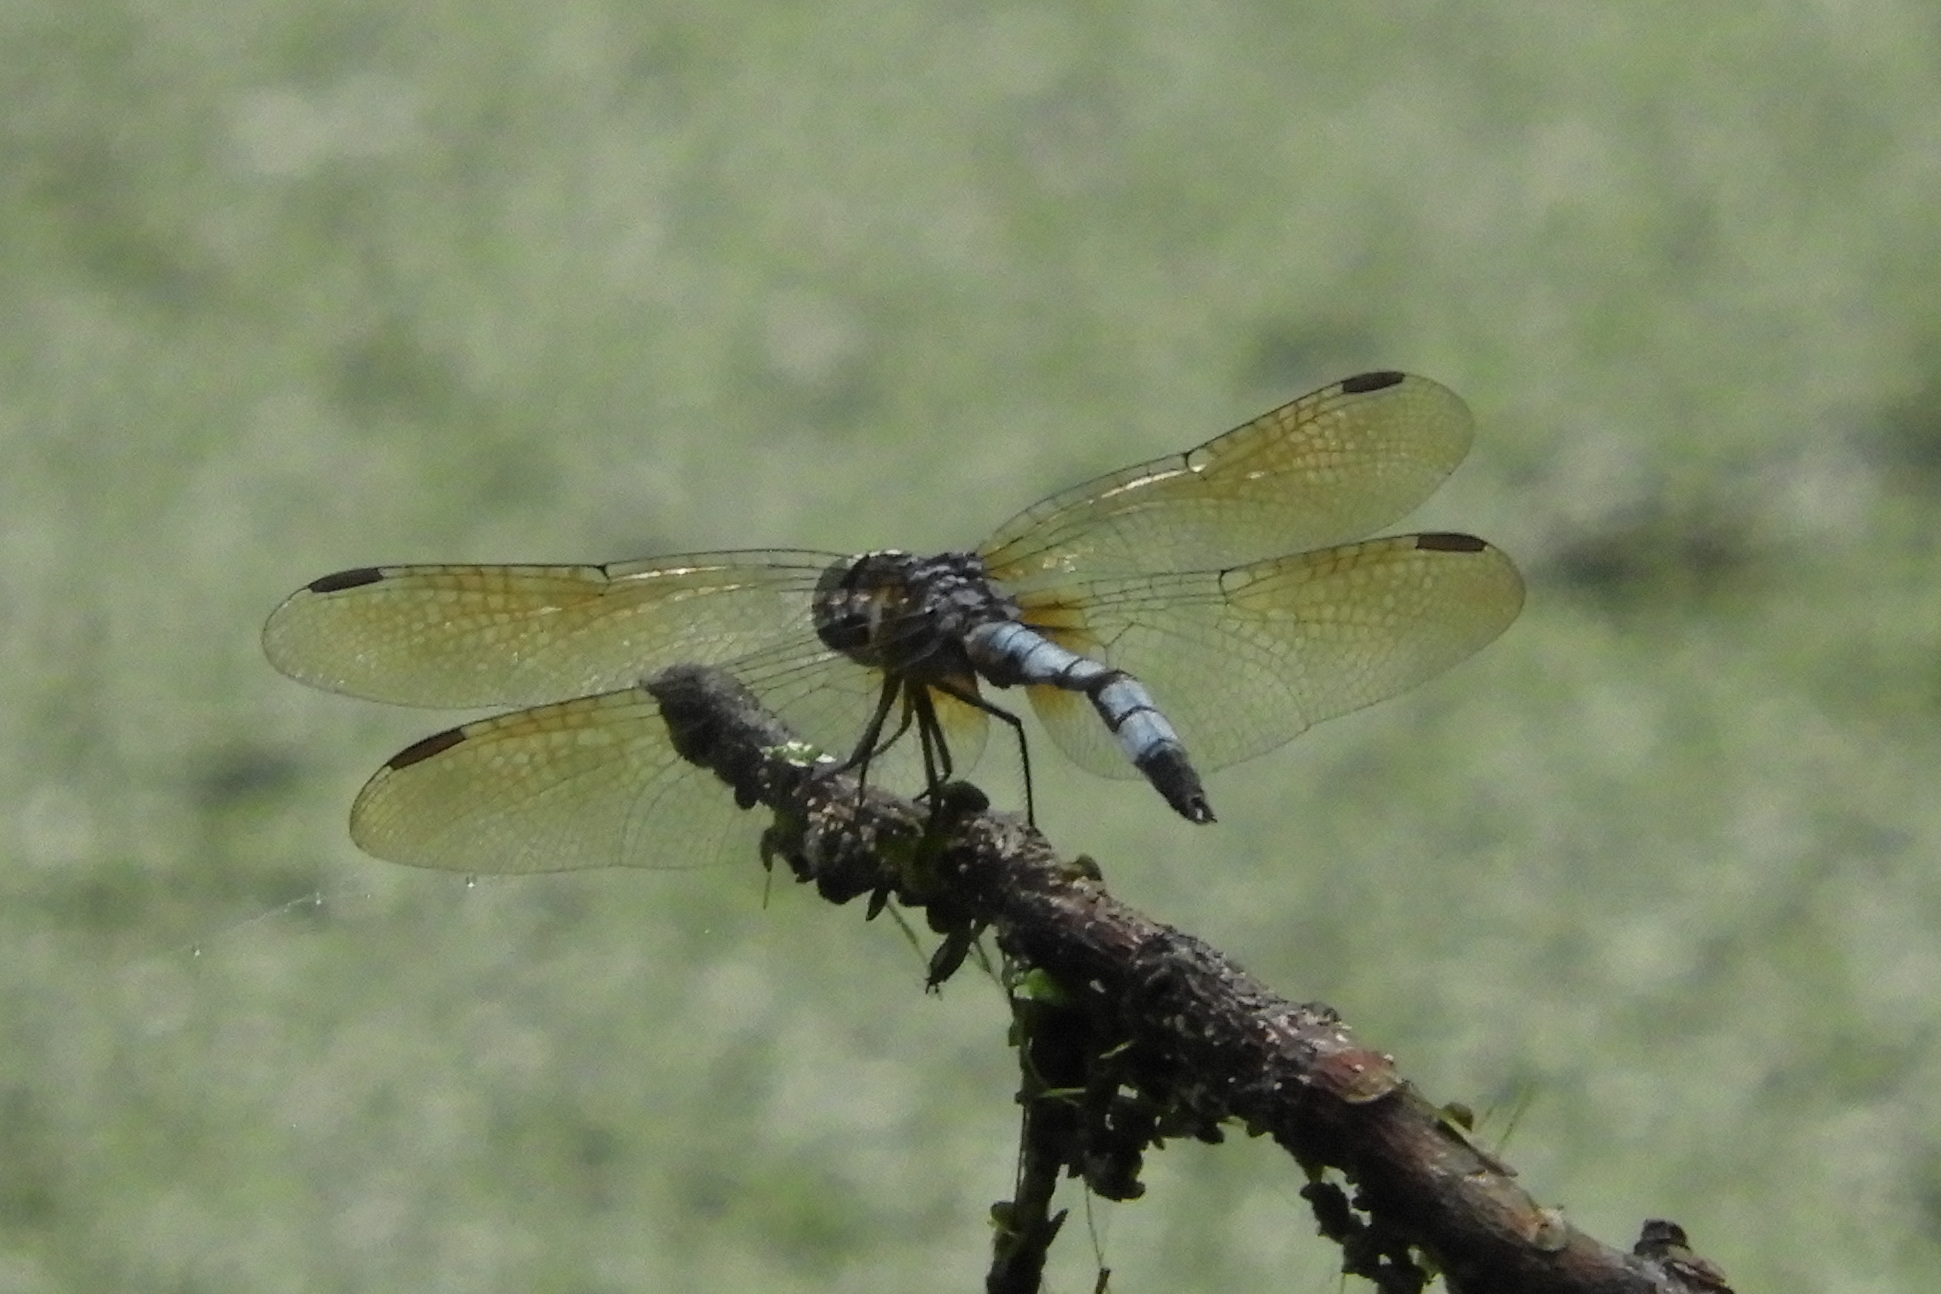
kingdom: Animalia
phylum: Arthropoda
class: Insecta
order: Odonata
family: Libellulidae
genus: Pachydiplax
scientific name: Pachydiplax longipennis
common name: Blue dasher
